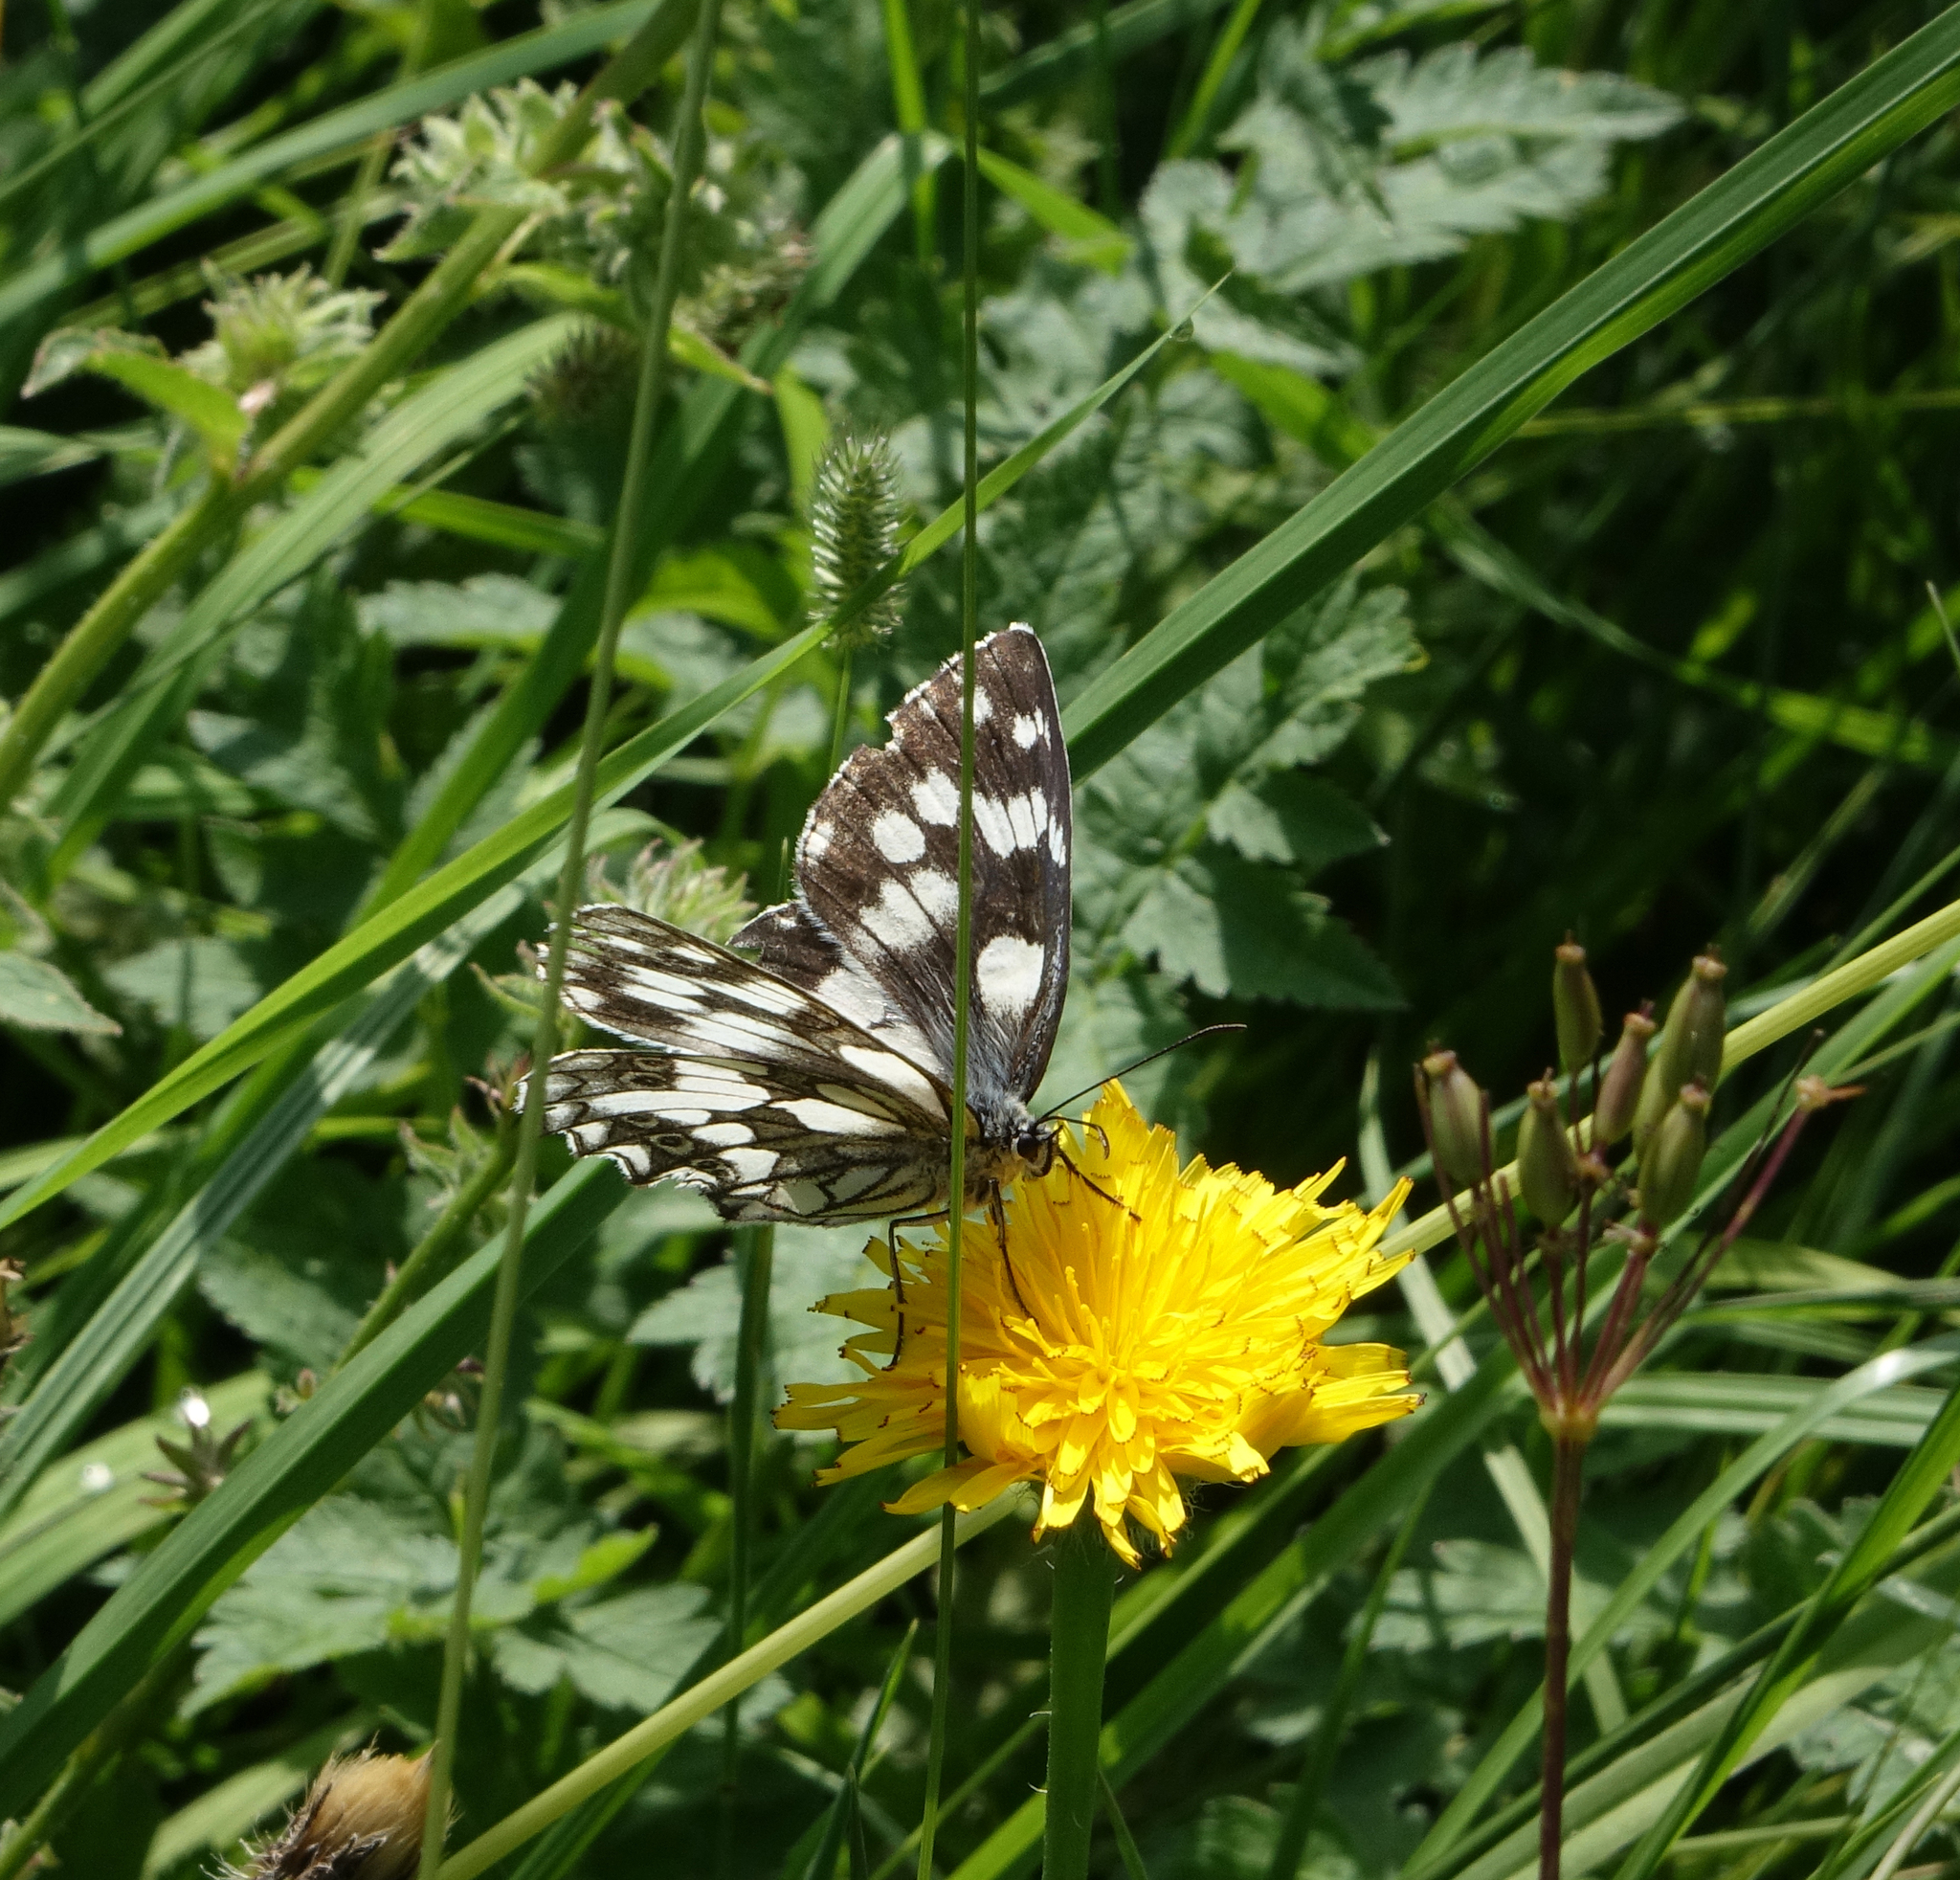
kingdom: Animalia
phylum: Arthropoda
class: Insecta
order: Lepidoptera
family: Nymphalidae
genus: Melanargia
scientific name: Melanargia galathea
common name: Marbled white
